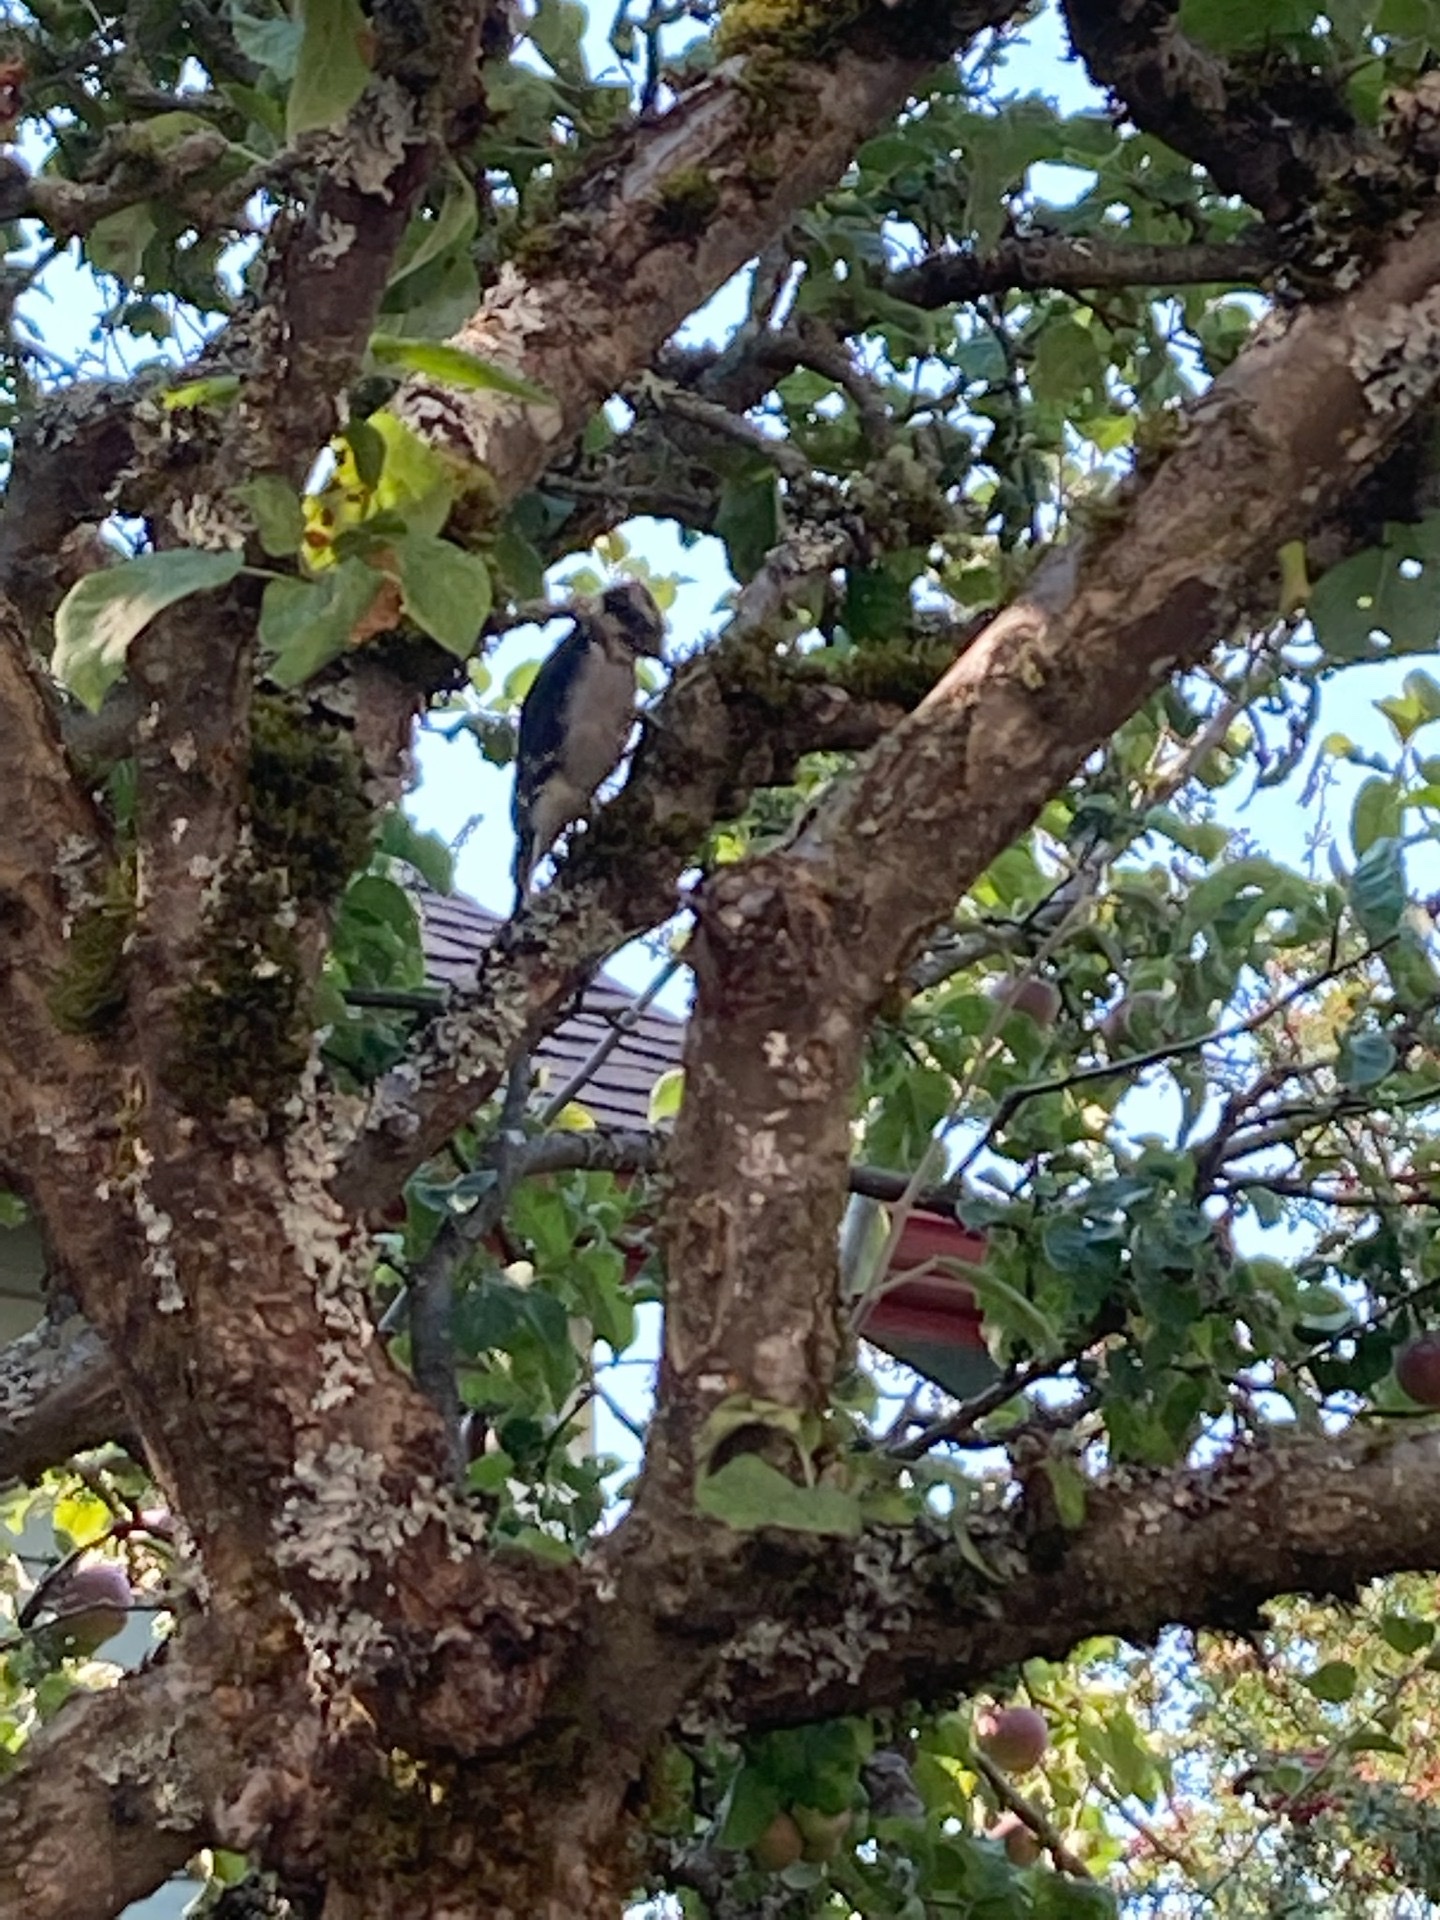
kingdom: Animalia
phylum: Chordata
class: Aves
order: Piciformes
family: Picidae
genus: Dryobates
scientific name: Dryobates pubescens
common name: Downy woodpecker
